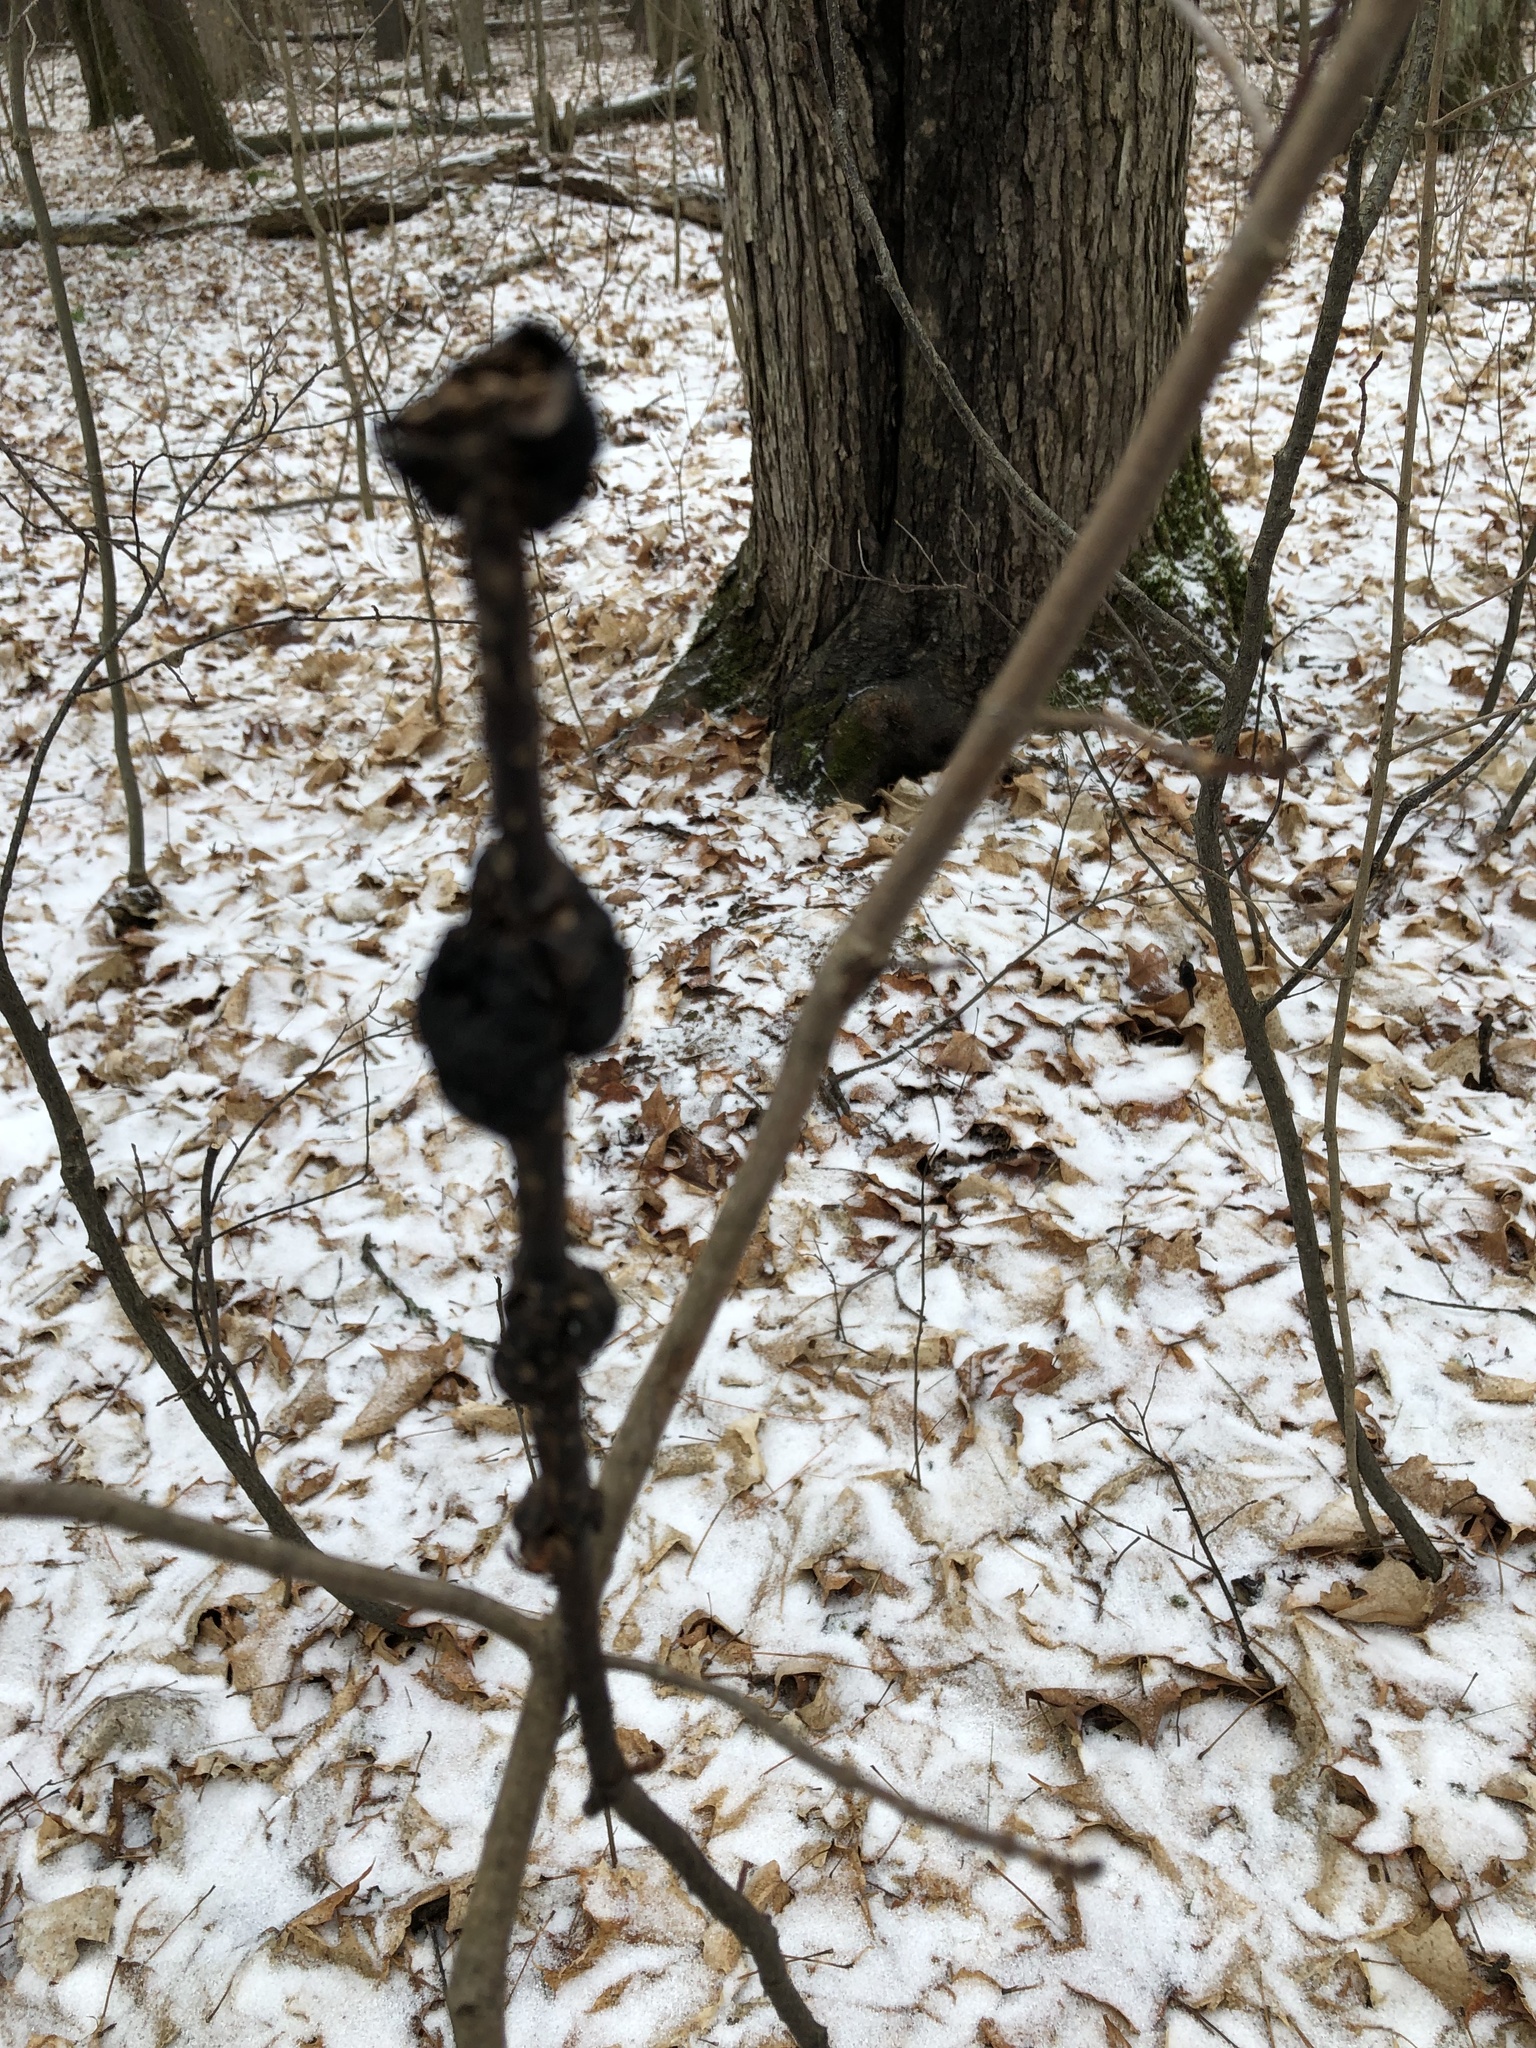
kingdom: Fungi
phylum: Ascomycota
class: Dothideomycetes
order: Venturiales
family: Venturiaceae
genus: Apiosporina
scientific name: Apiosporina morbosa
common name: Black knot
